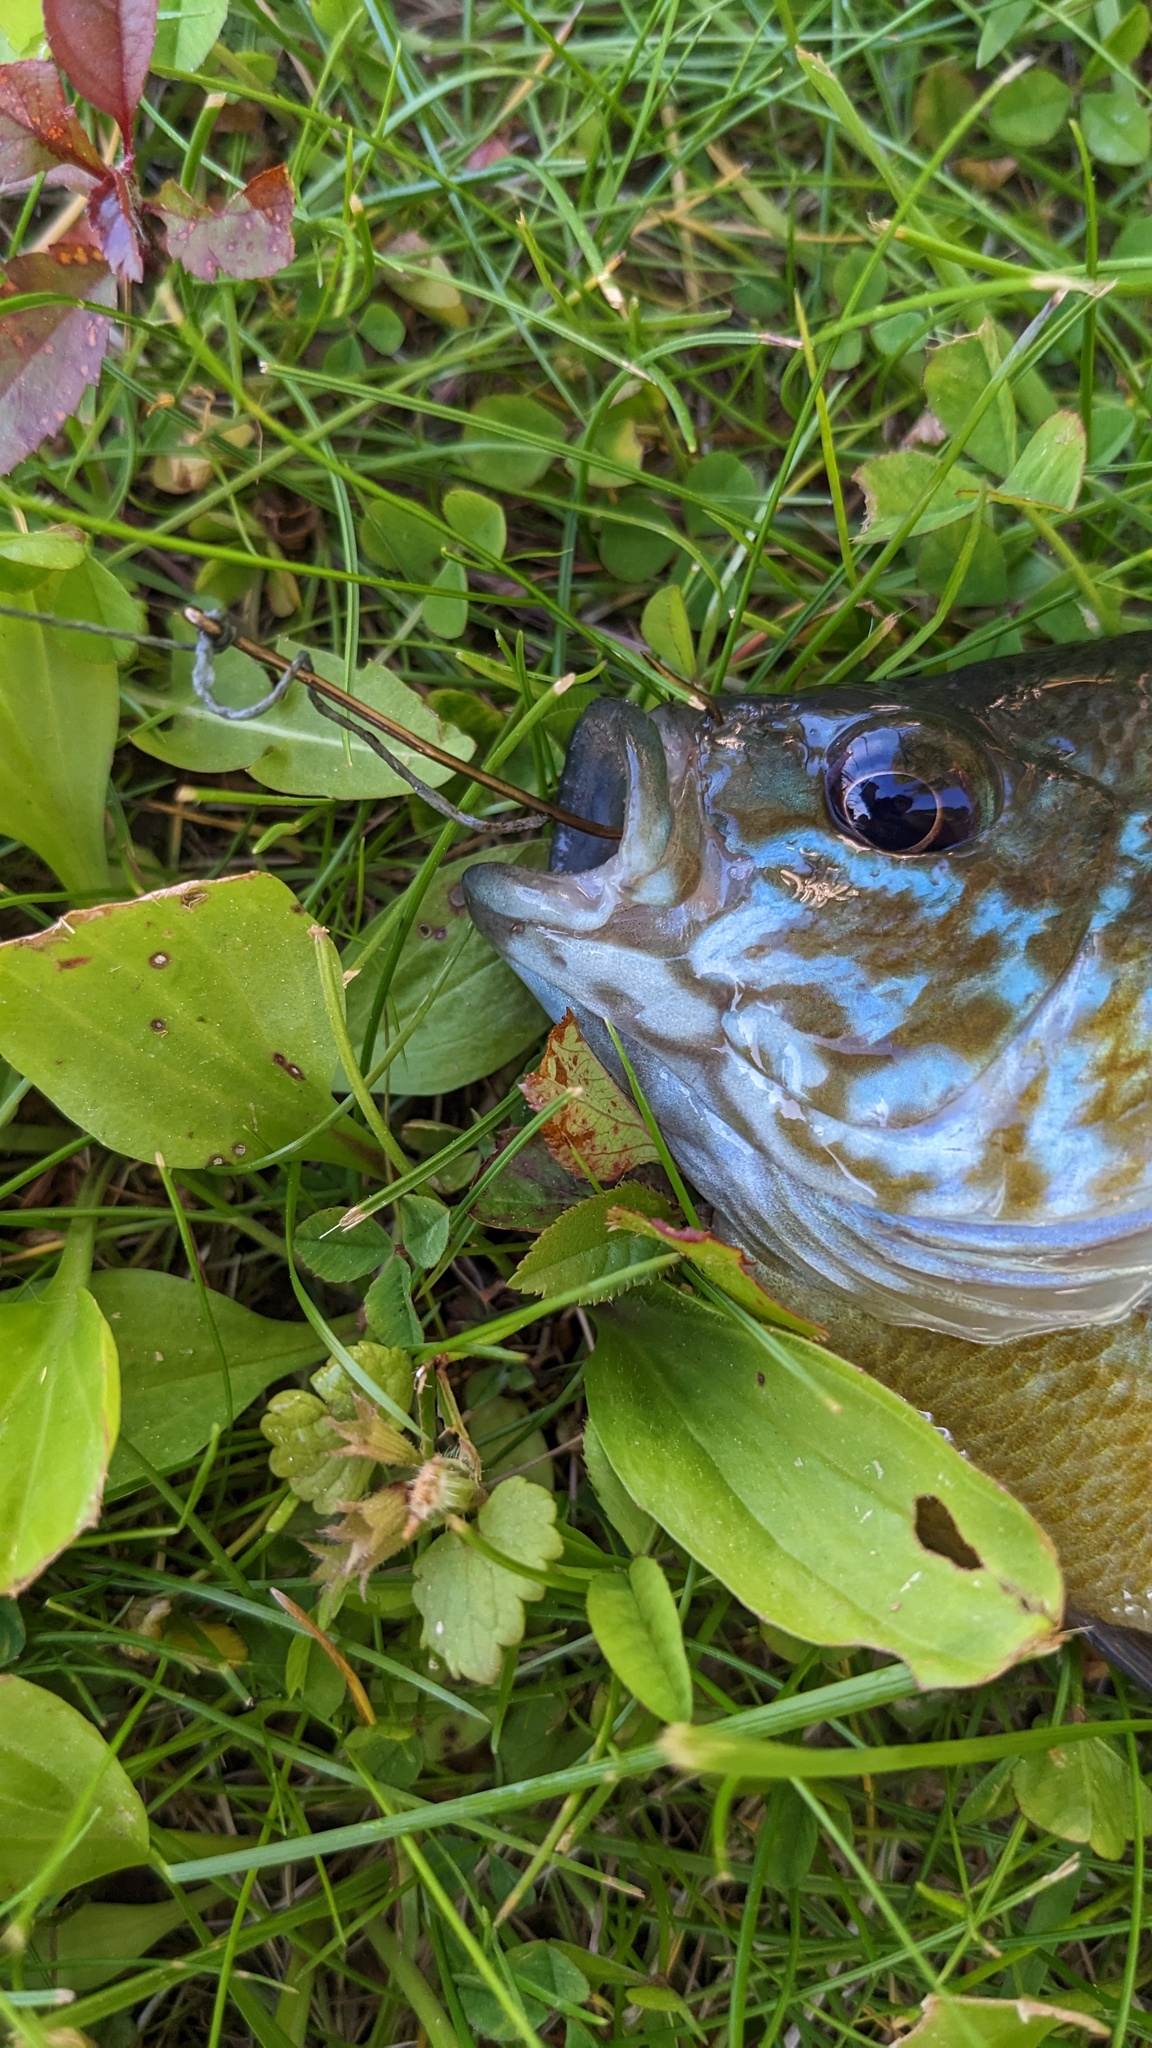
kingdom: Animalia
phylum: Chordata
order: Perciformes
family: Centrarchidae
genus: Lepomis
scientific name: Lepomis
